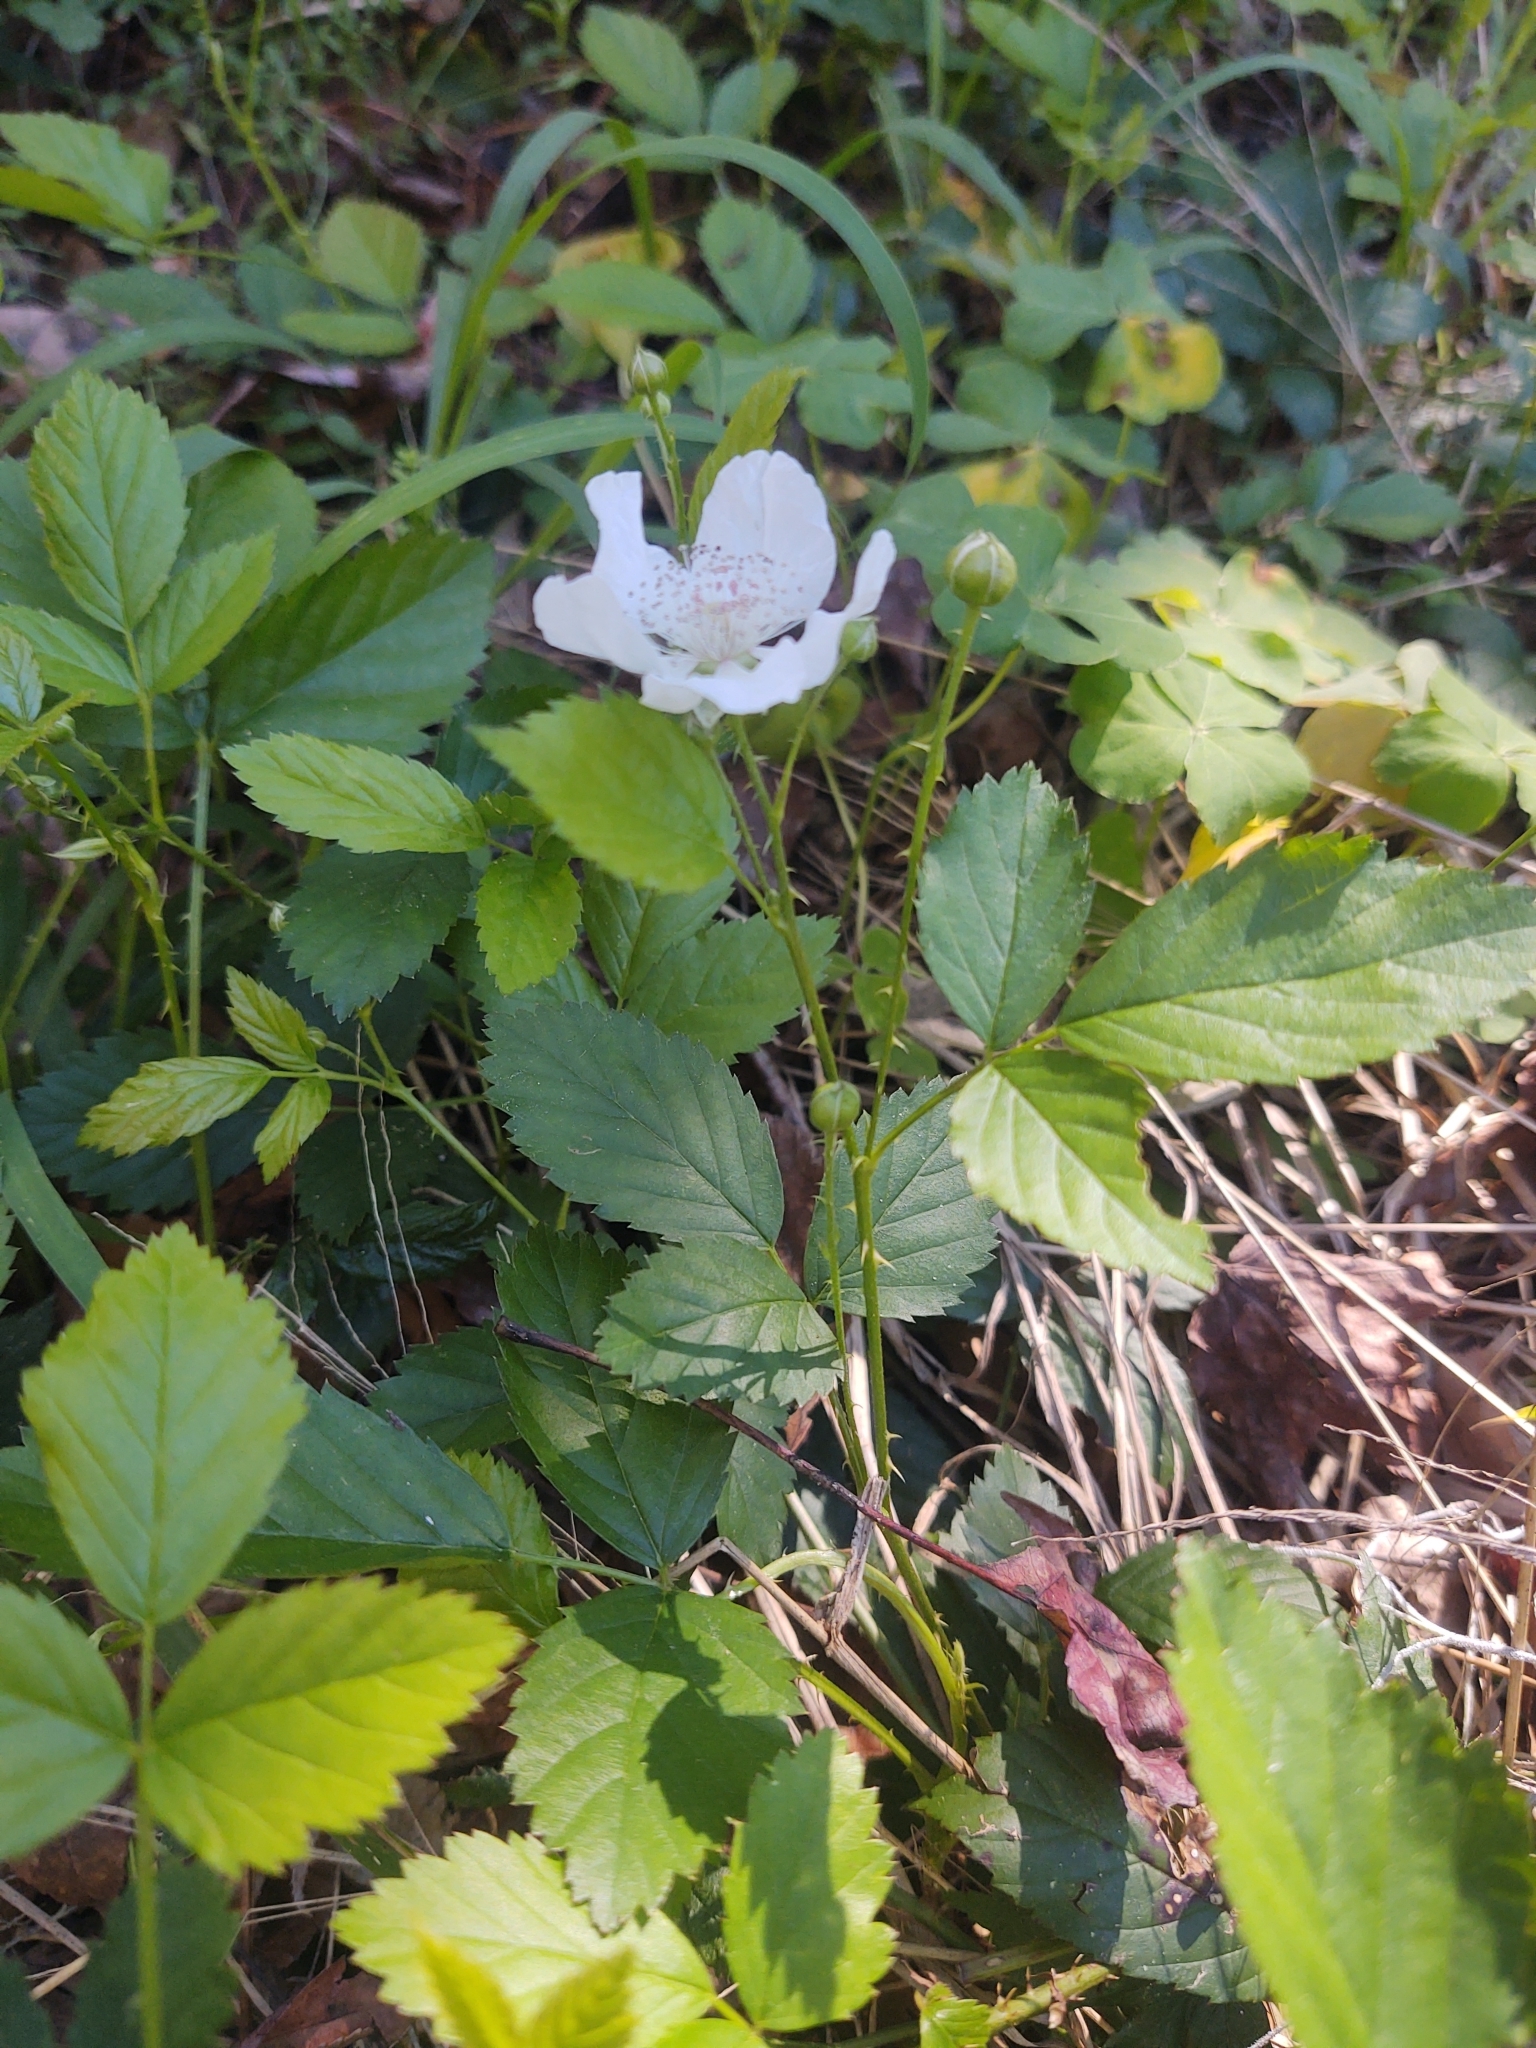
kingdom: Plantae
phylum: Tracheophyta
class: Magnoliopsida
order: Rosales
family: Rosaceae
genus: Rubus
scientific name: Rubus trivialis
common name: Southern dewberry
